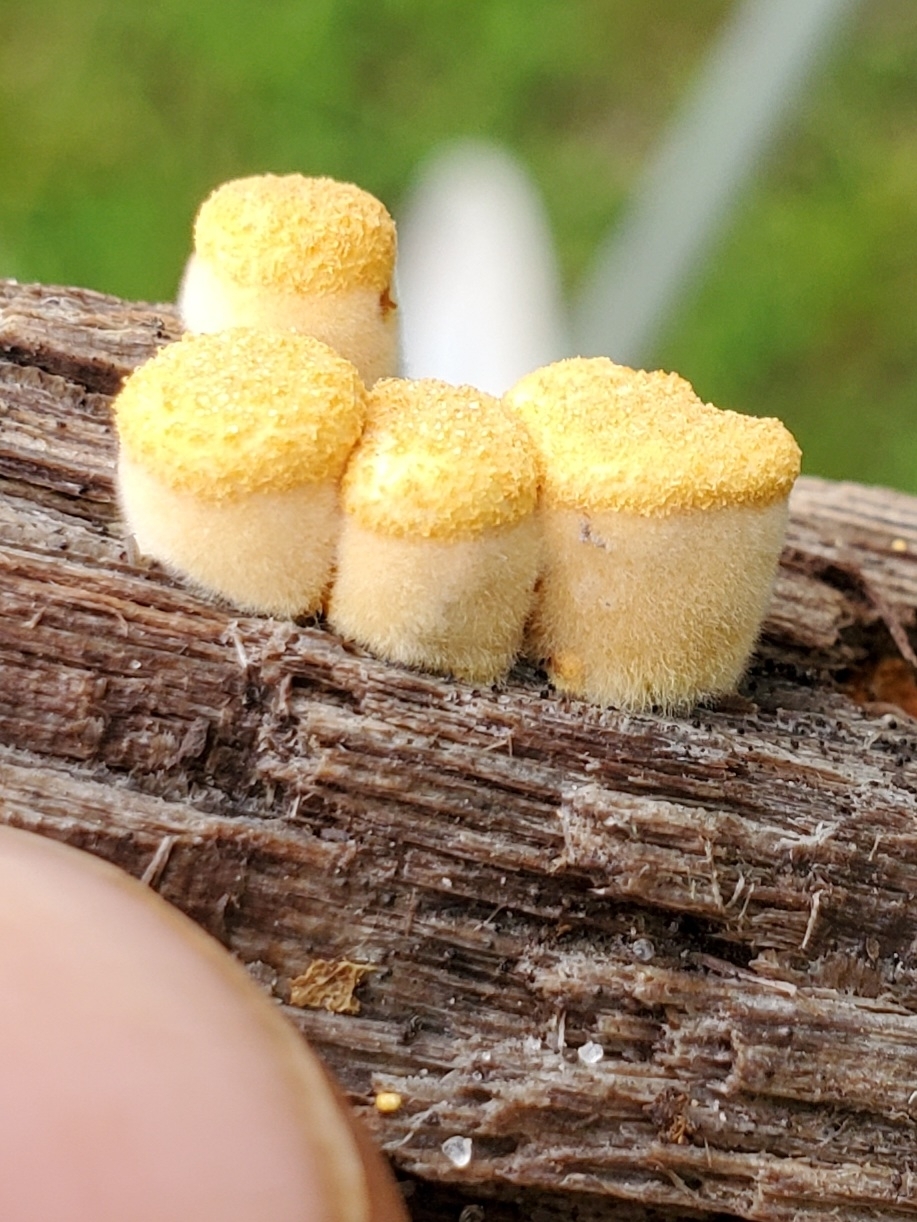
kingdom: Fungi
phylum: Basidiomycota
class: Agaricomycetes
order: Agaricales
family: Nidulariaceae
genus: Crucibulum
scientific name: Crucibulum laeve
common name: Common bird's nest
